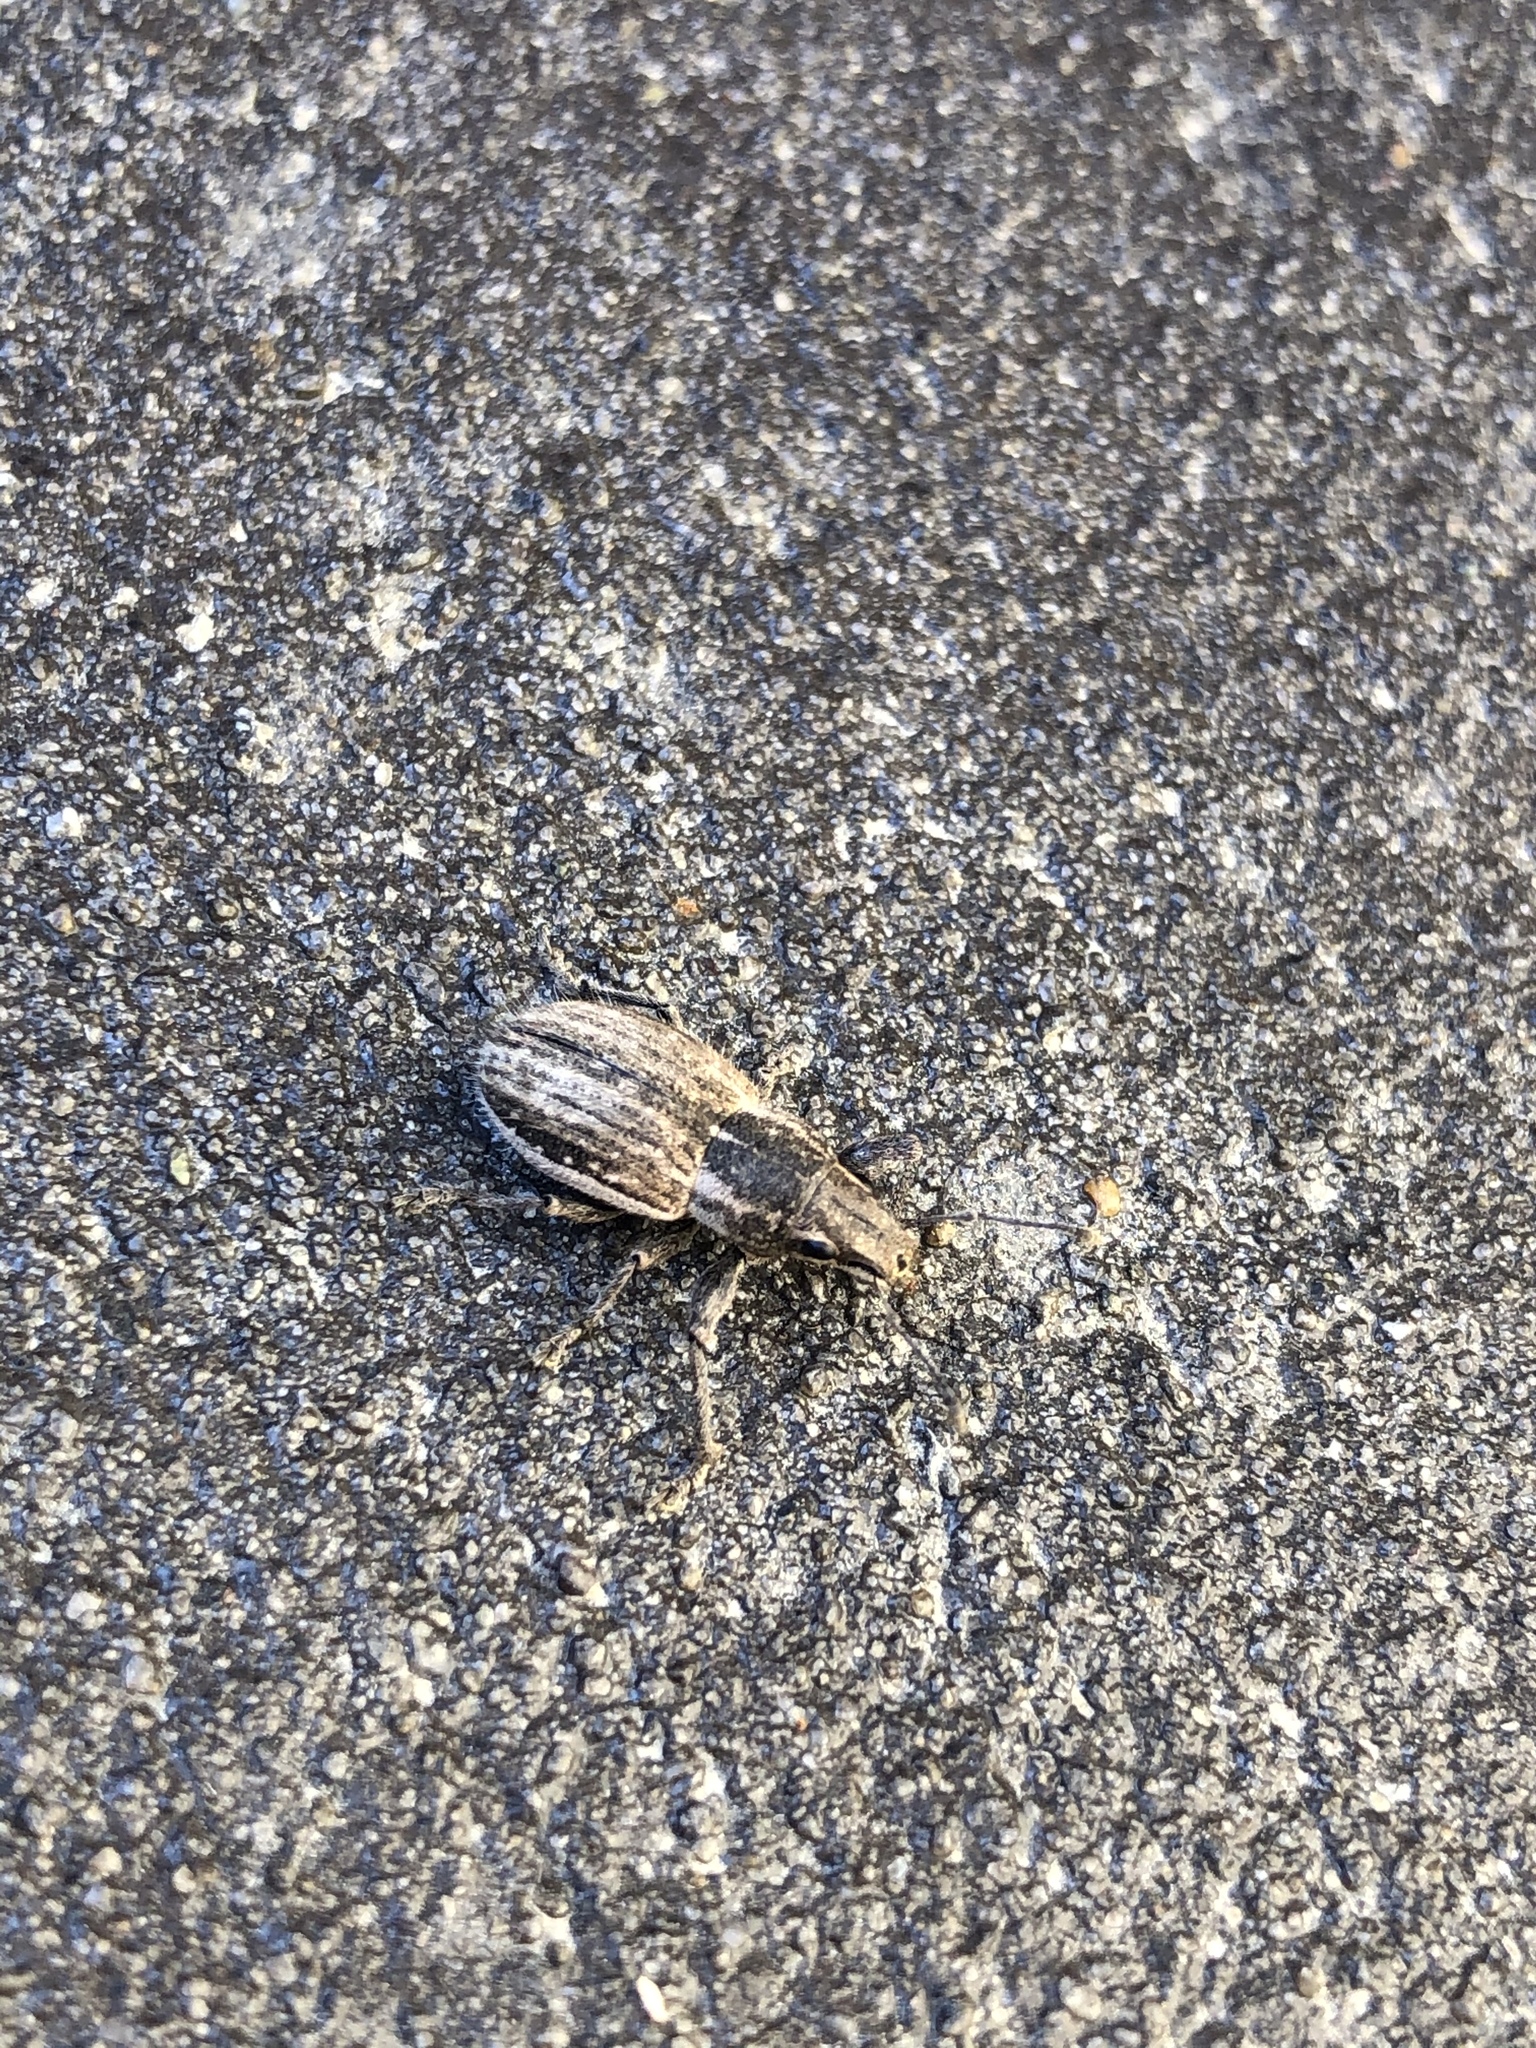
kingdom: Animalia
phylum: Arthropoda
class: Insecta
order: Coleoptera
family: Curculionidae
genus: Naupactus
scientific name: Naupactus leucoloma
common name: Whitefringed beetle
